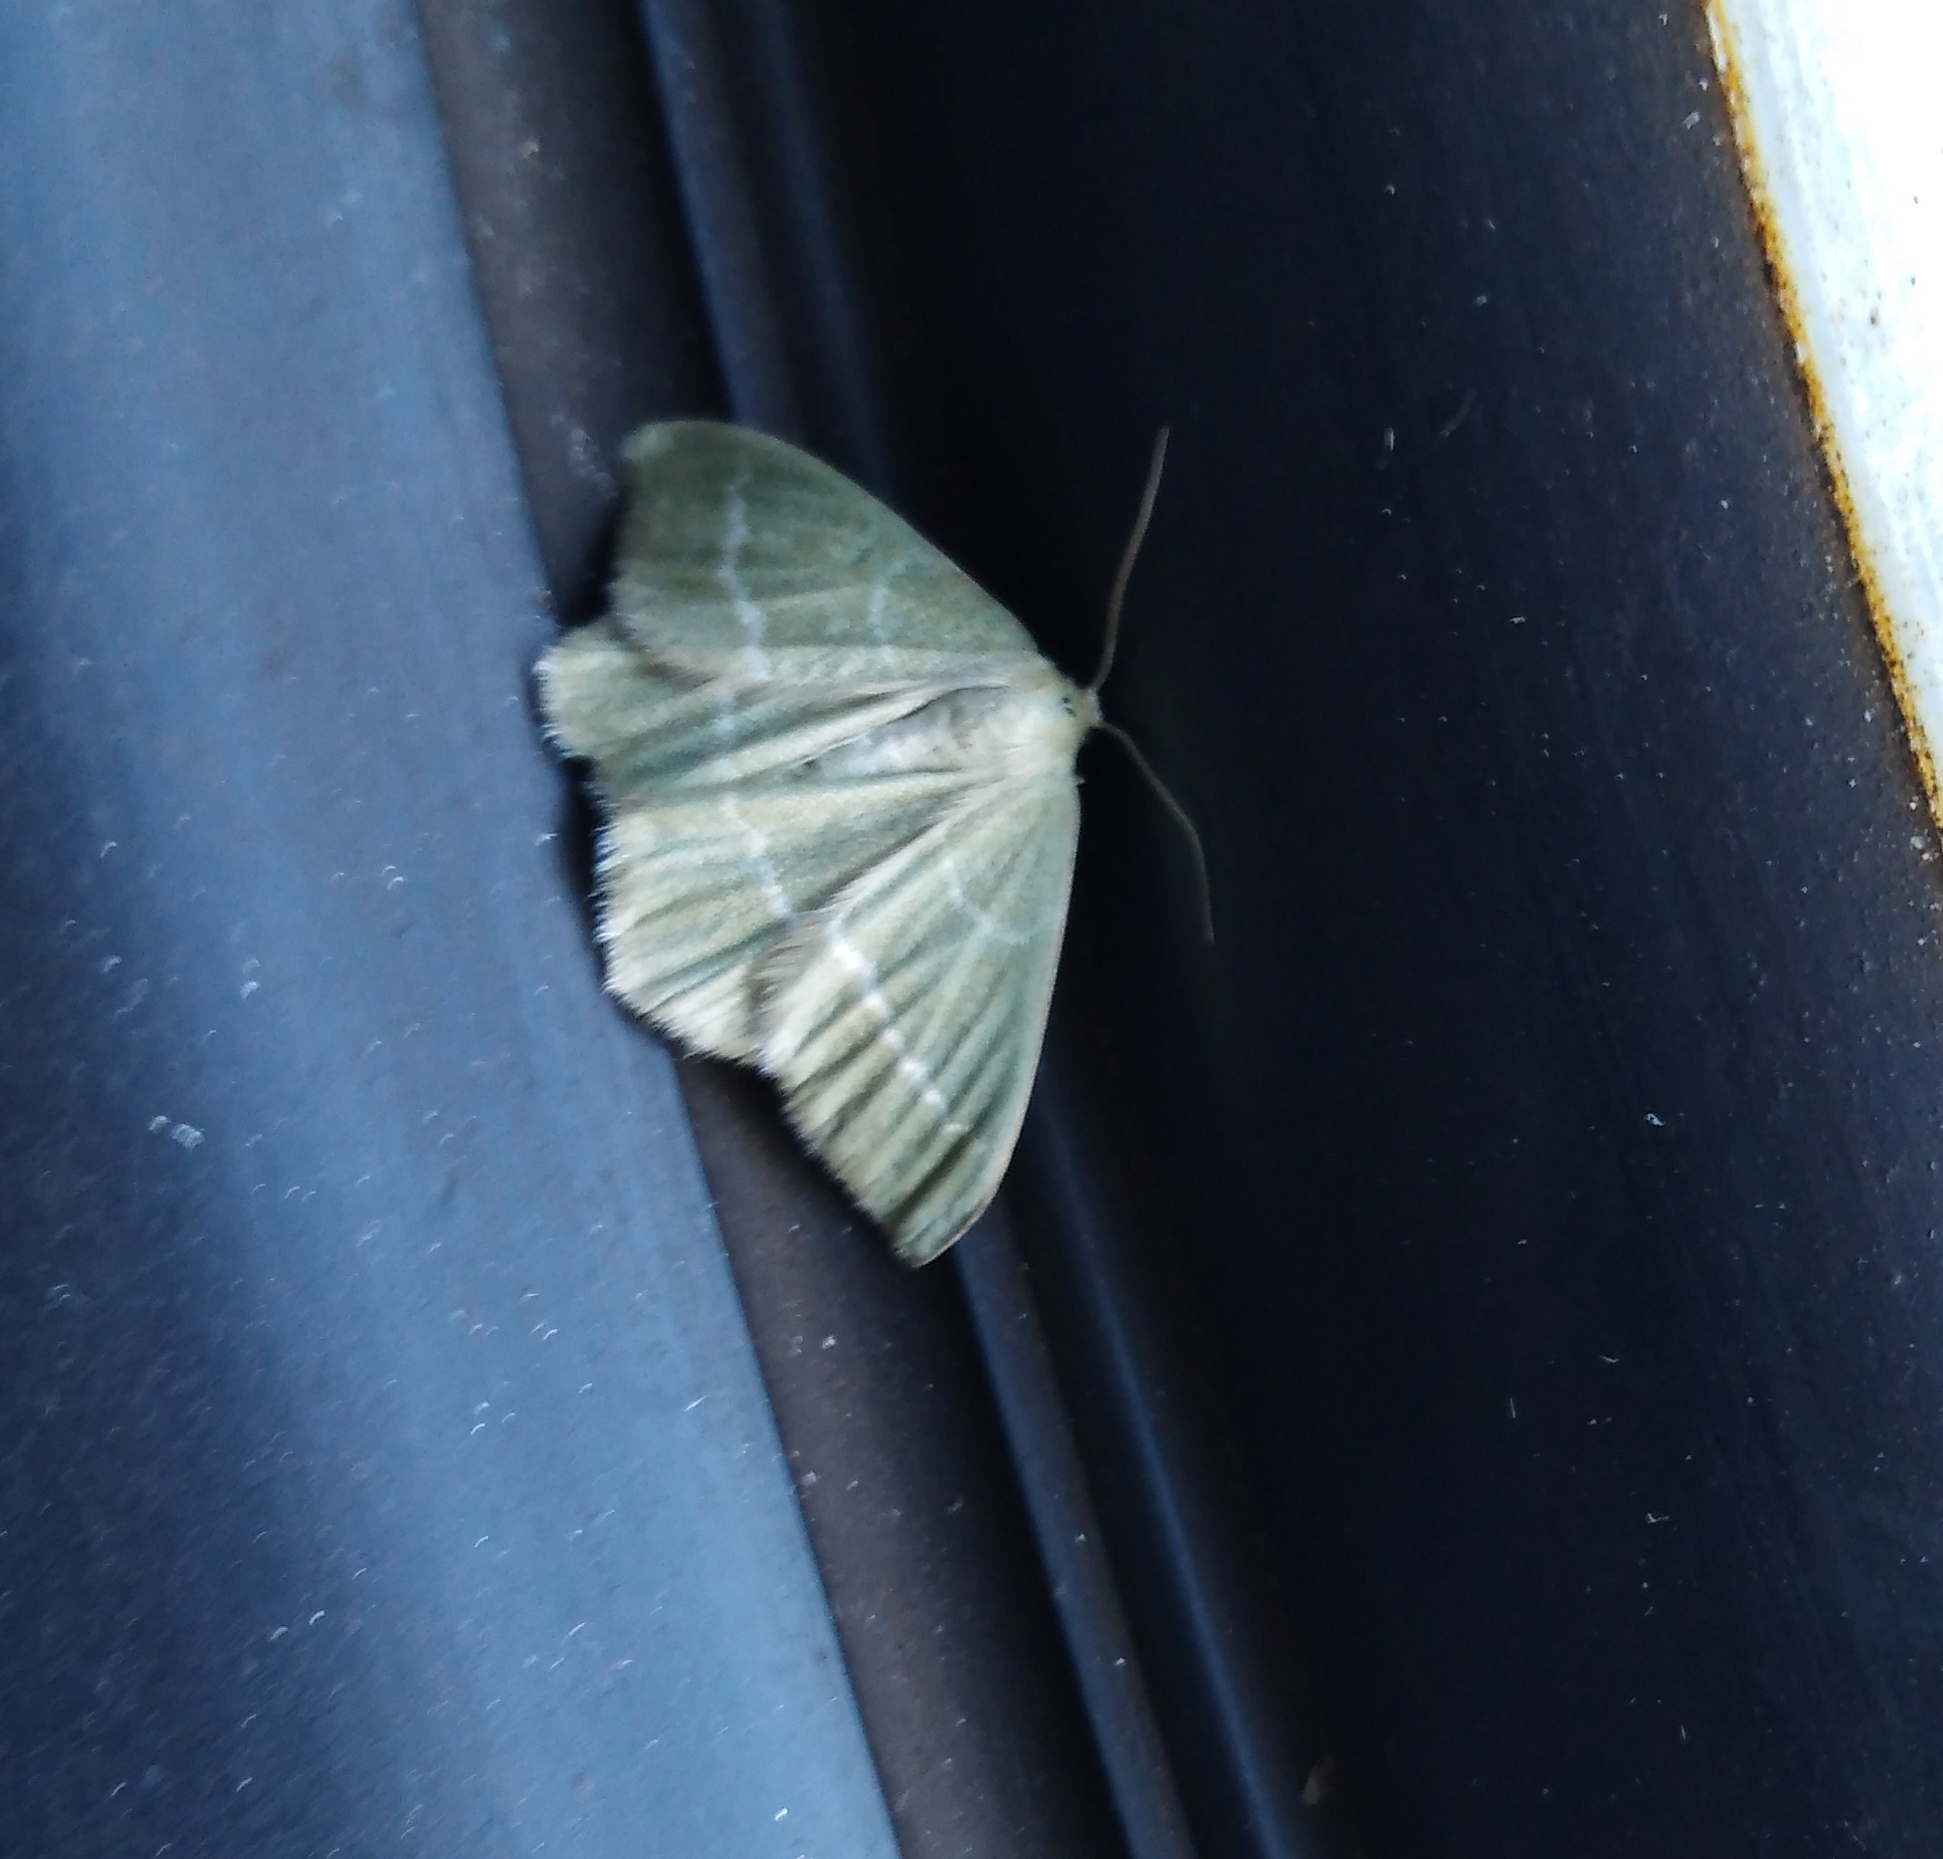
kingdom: Animalia
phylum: Arthropoda
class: Insecta
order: Lepidoptera
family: Geometridae
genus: Chlorissa
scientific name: Chlorissa viridata
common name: Small grass emerald
